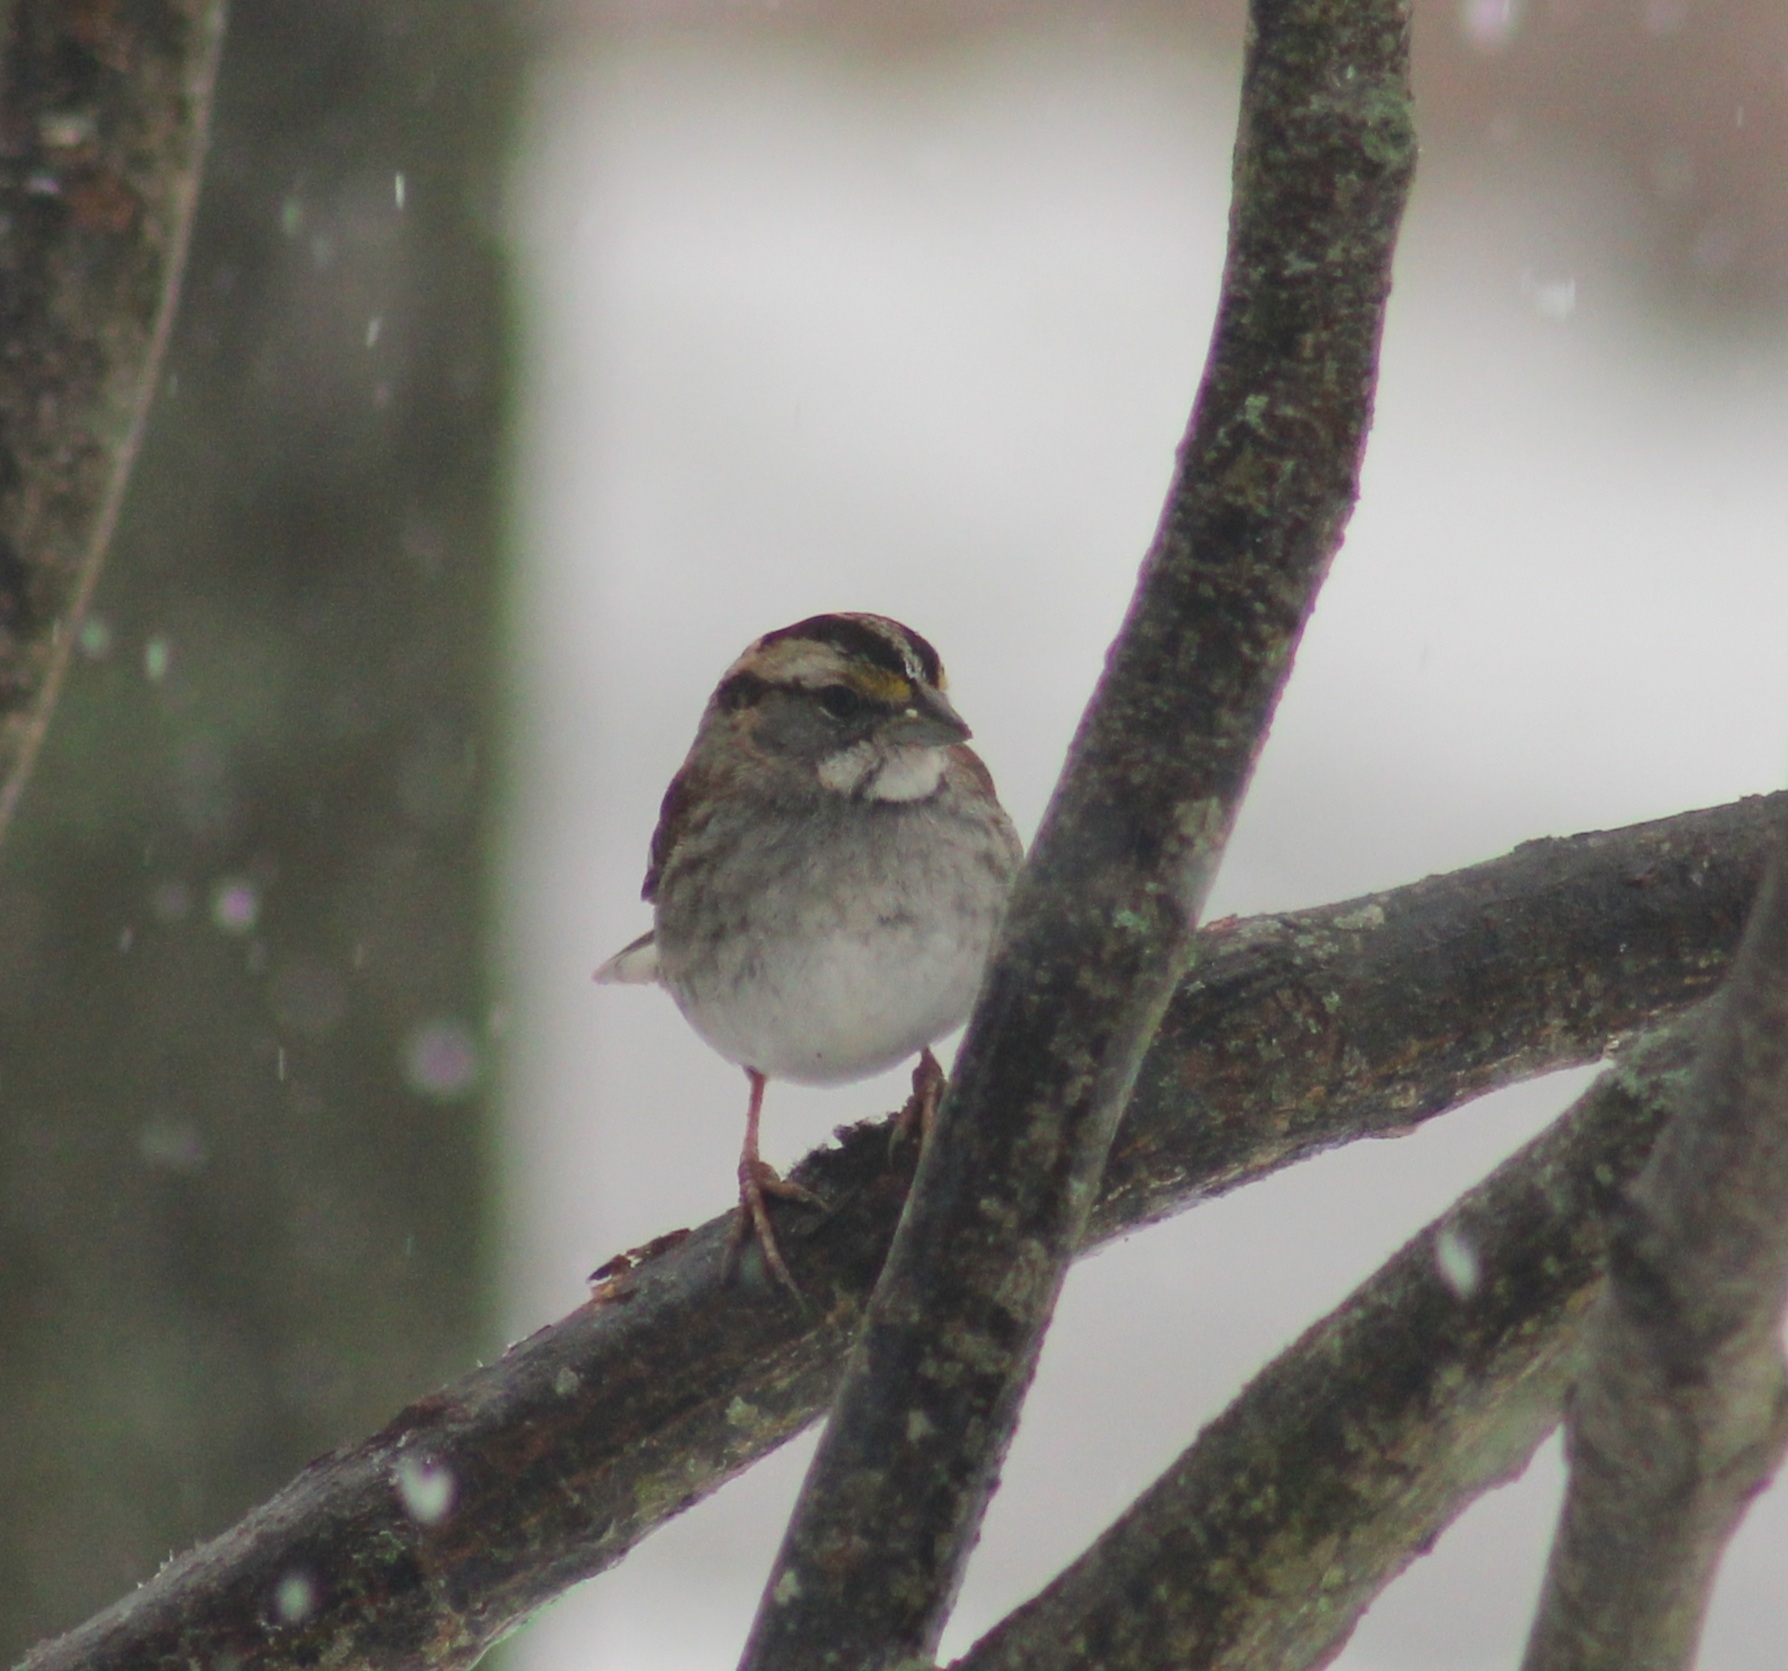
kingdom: Animalia
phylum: Chordata
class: Aves
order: Passeriformes
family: Passerellidae
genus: Zonotrichia
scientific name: Zonotrichia albicollis
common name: White-throated sparrow
